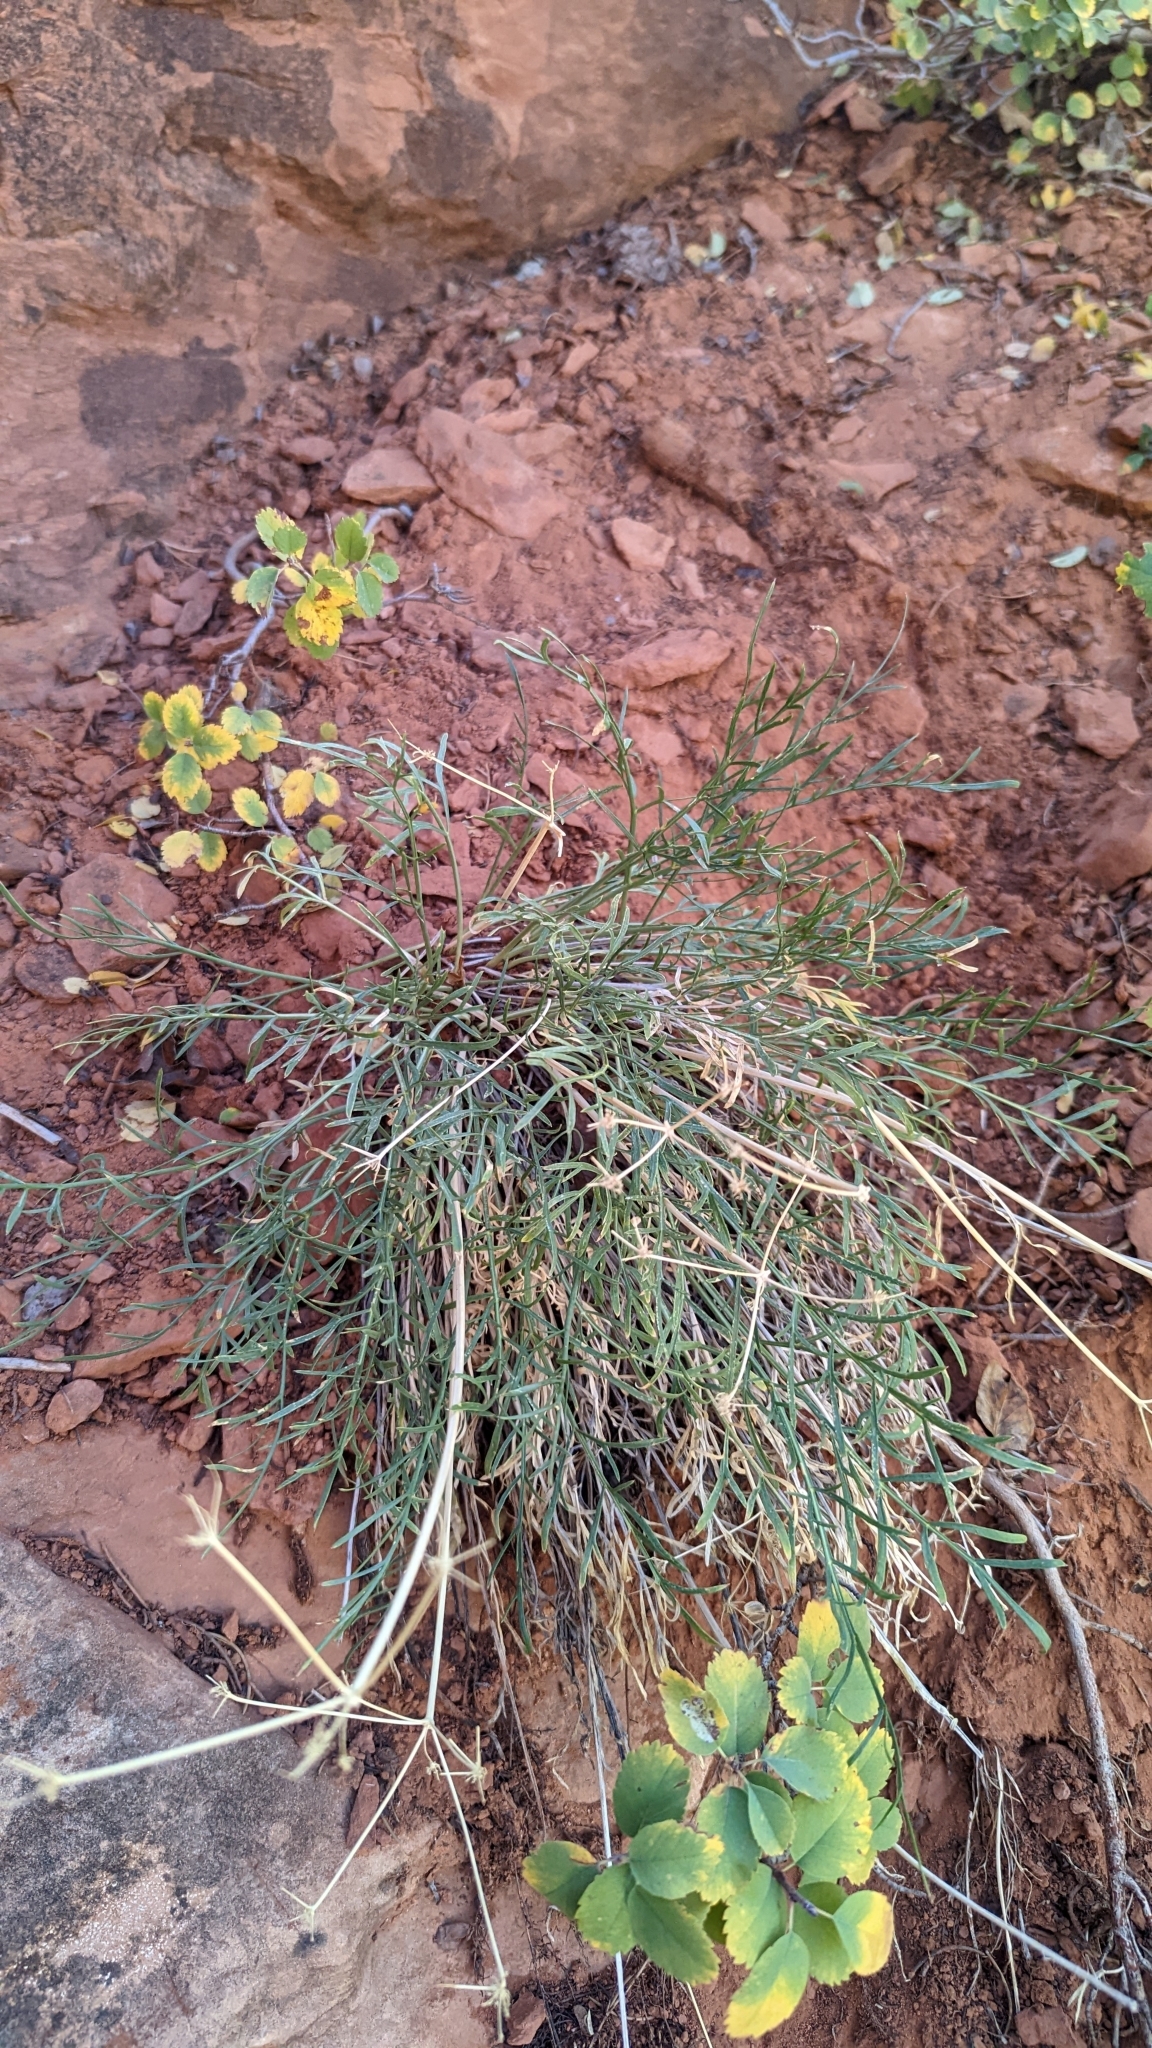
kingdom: Plantae
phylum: Tracheophyta
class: Magnoliopsida
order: Apiales
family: Apiaceae
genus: Lomatium
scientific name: Lomatium graveolens
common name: Stinking lomatium
